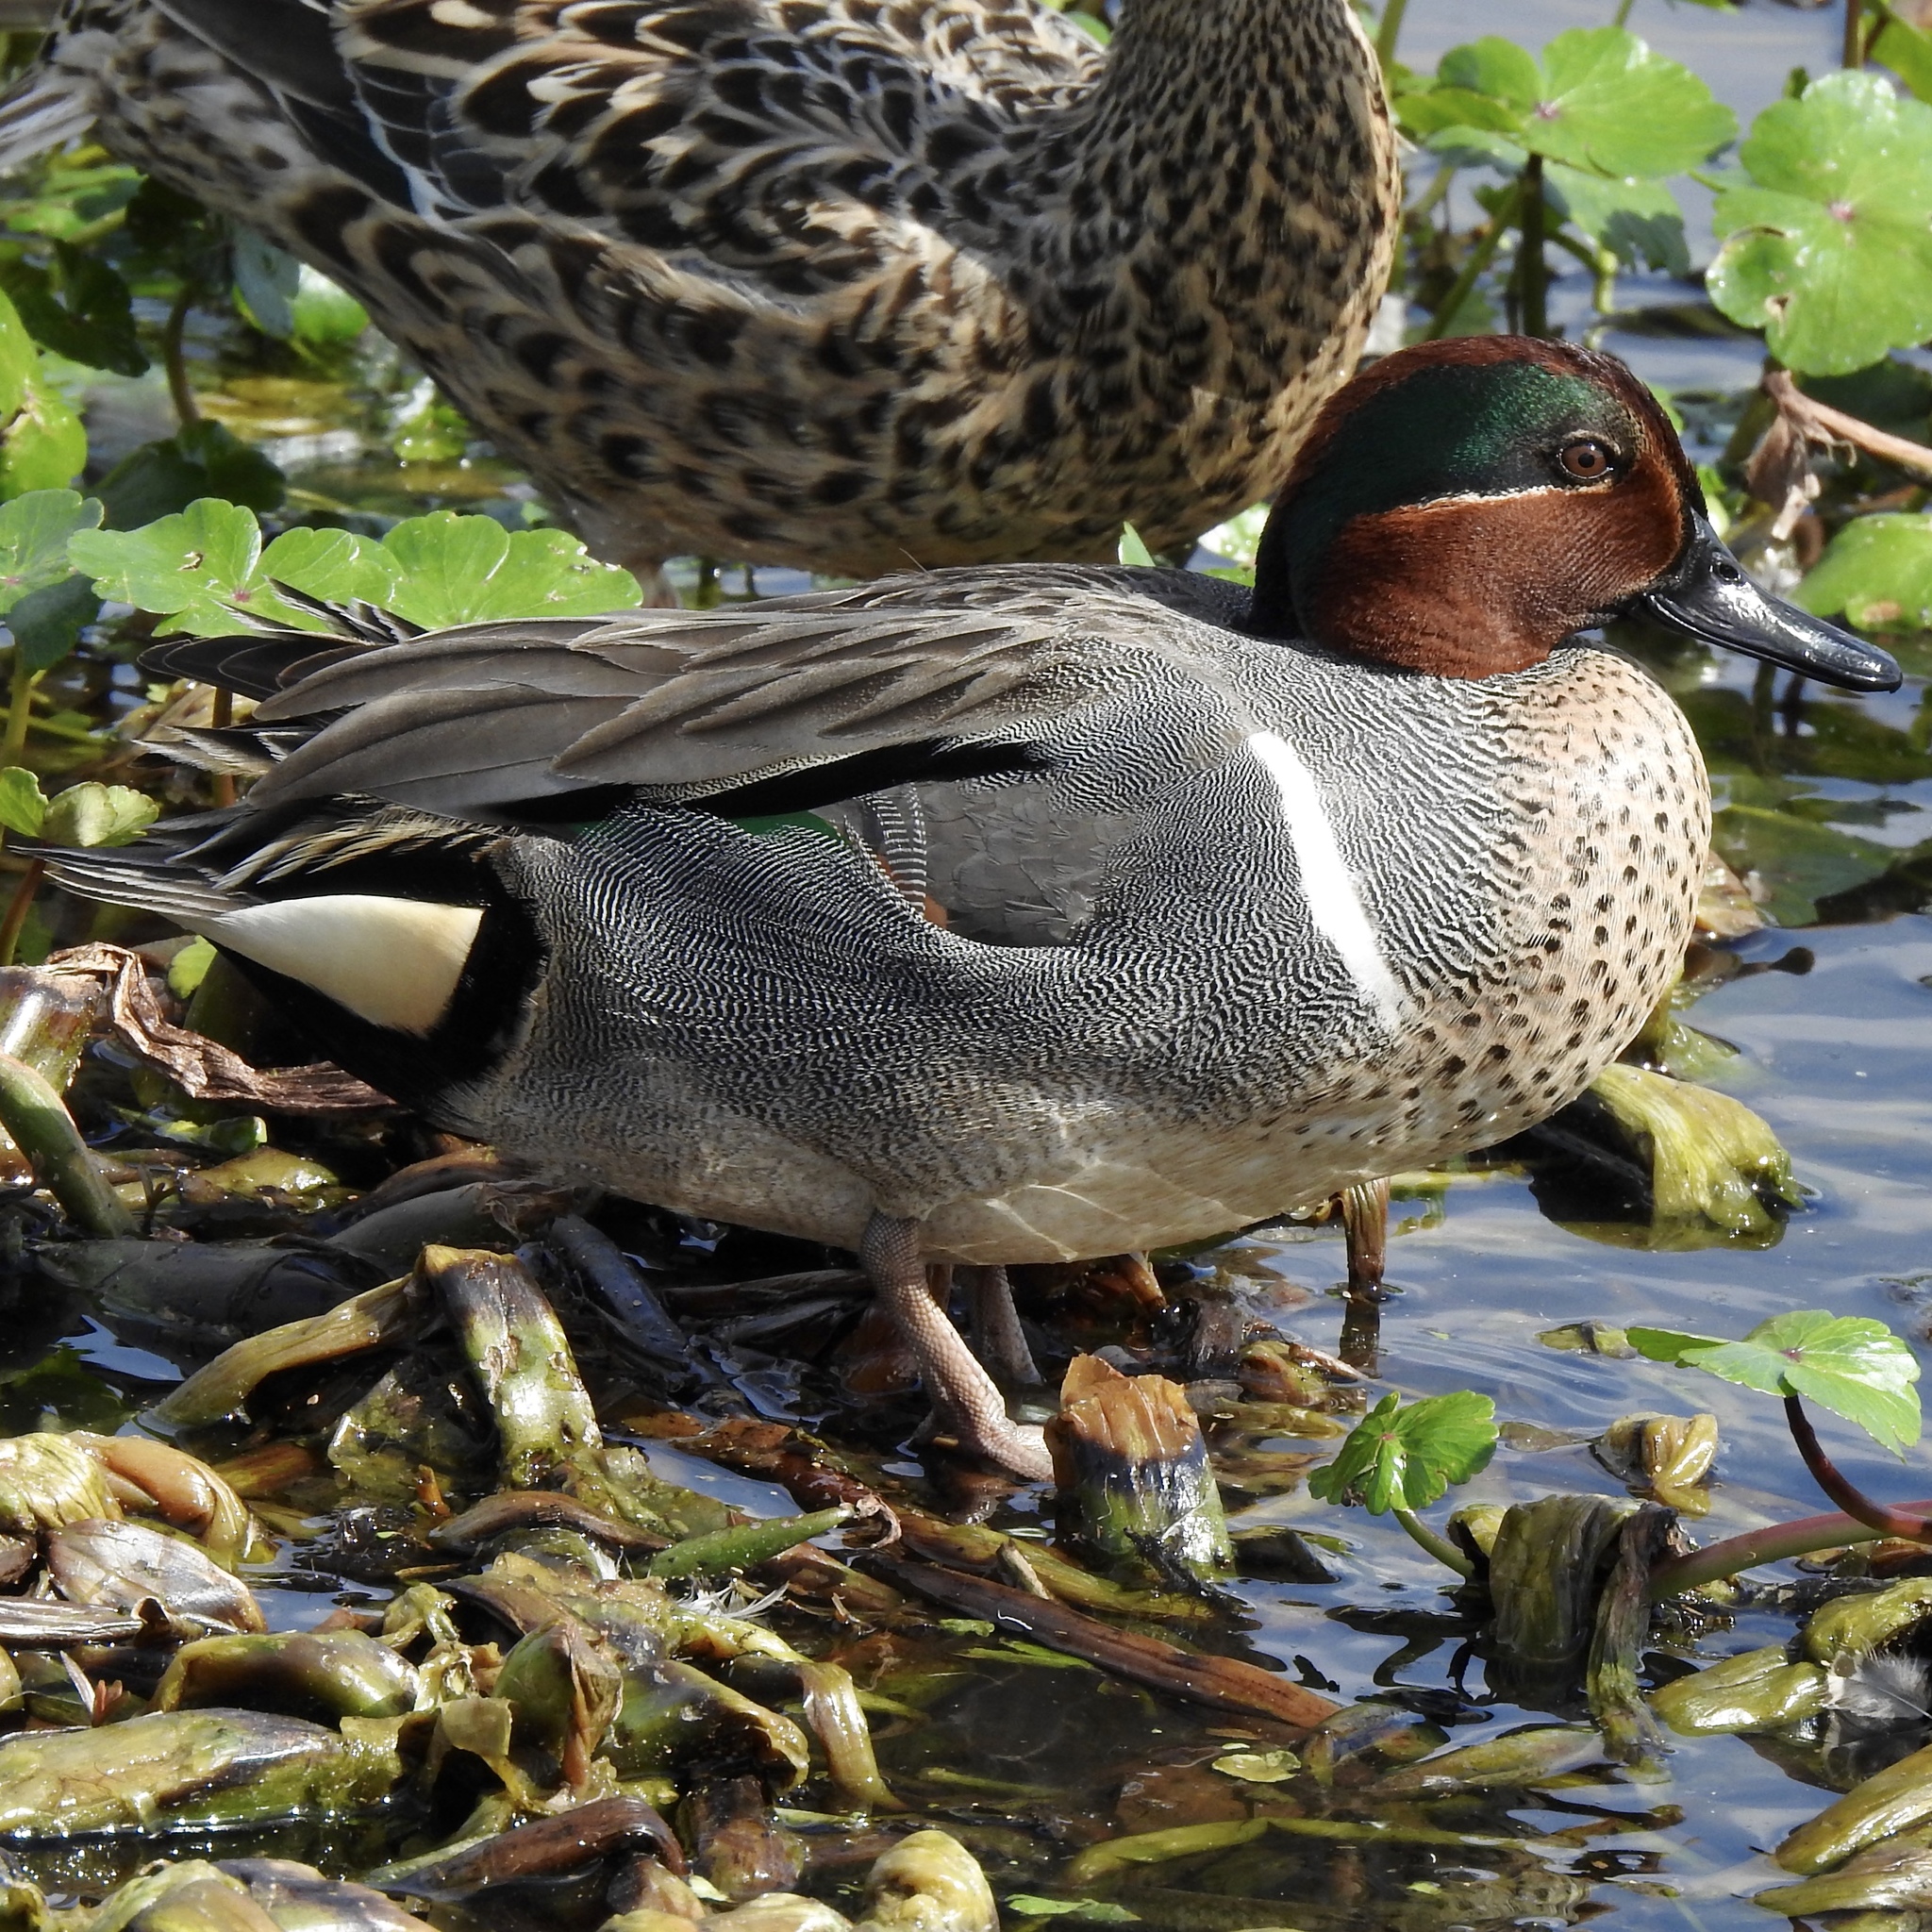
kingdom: Animalia
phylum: Chordata
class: Aves
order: Anseriformes
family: Anatidae
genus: Anas
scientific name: Anas crecca
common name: Eurasian teal
